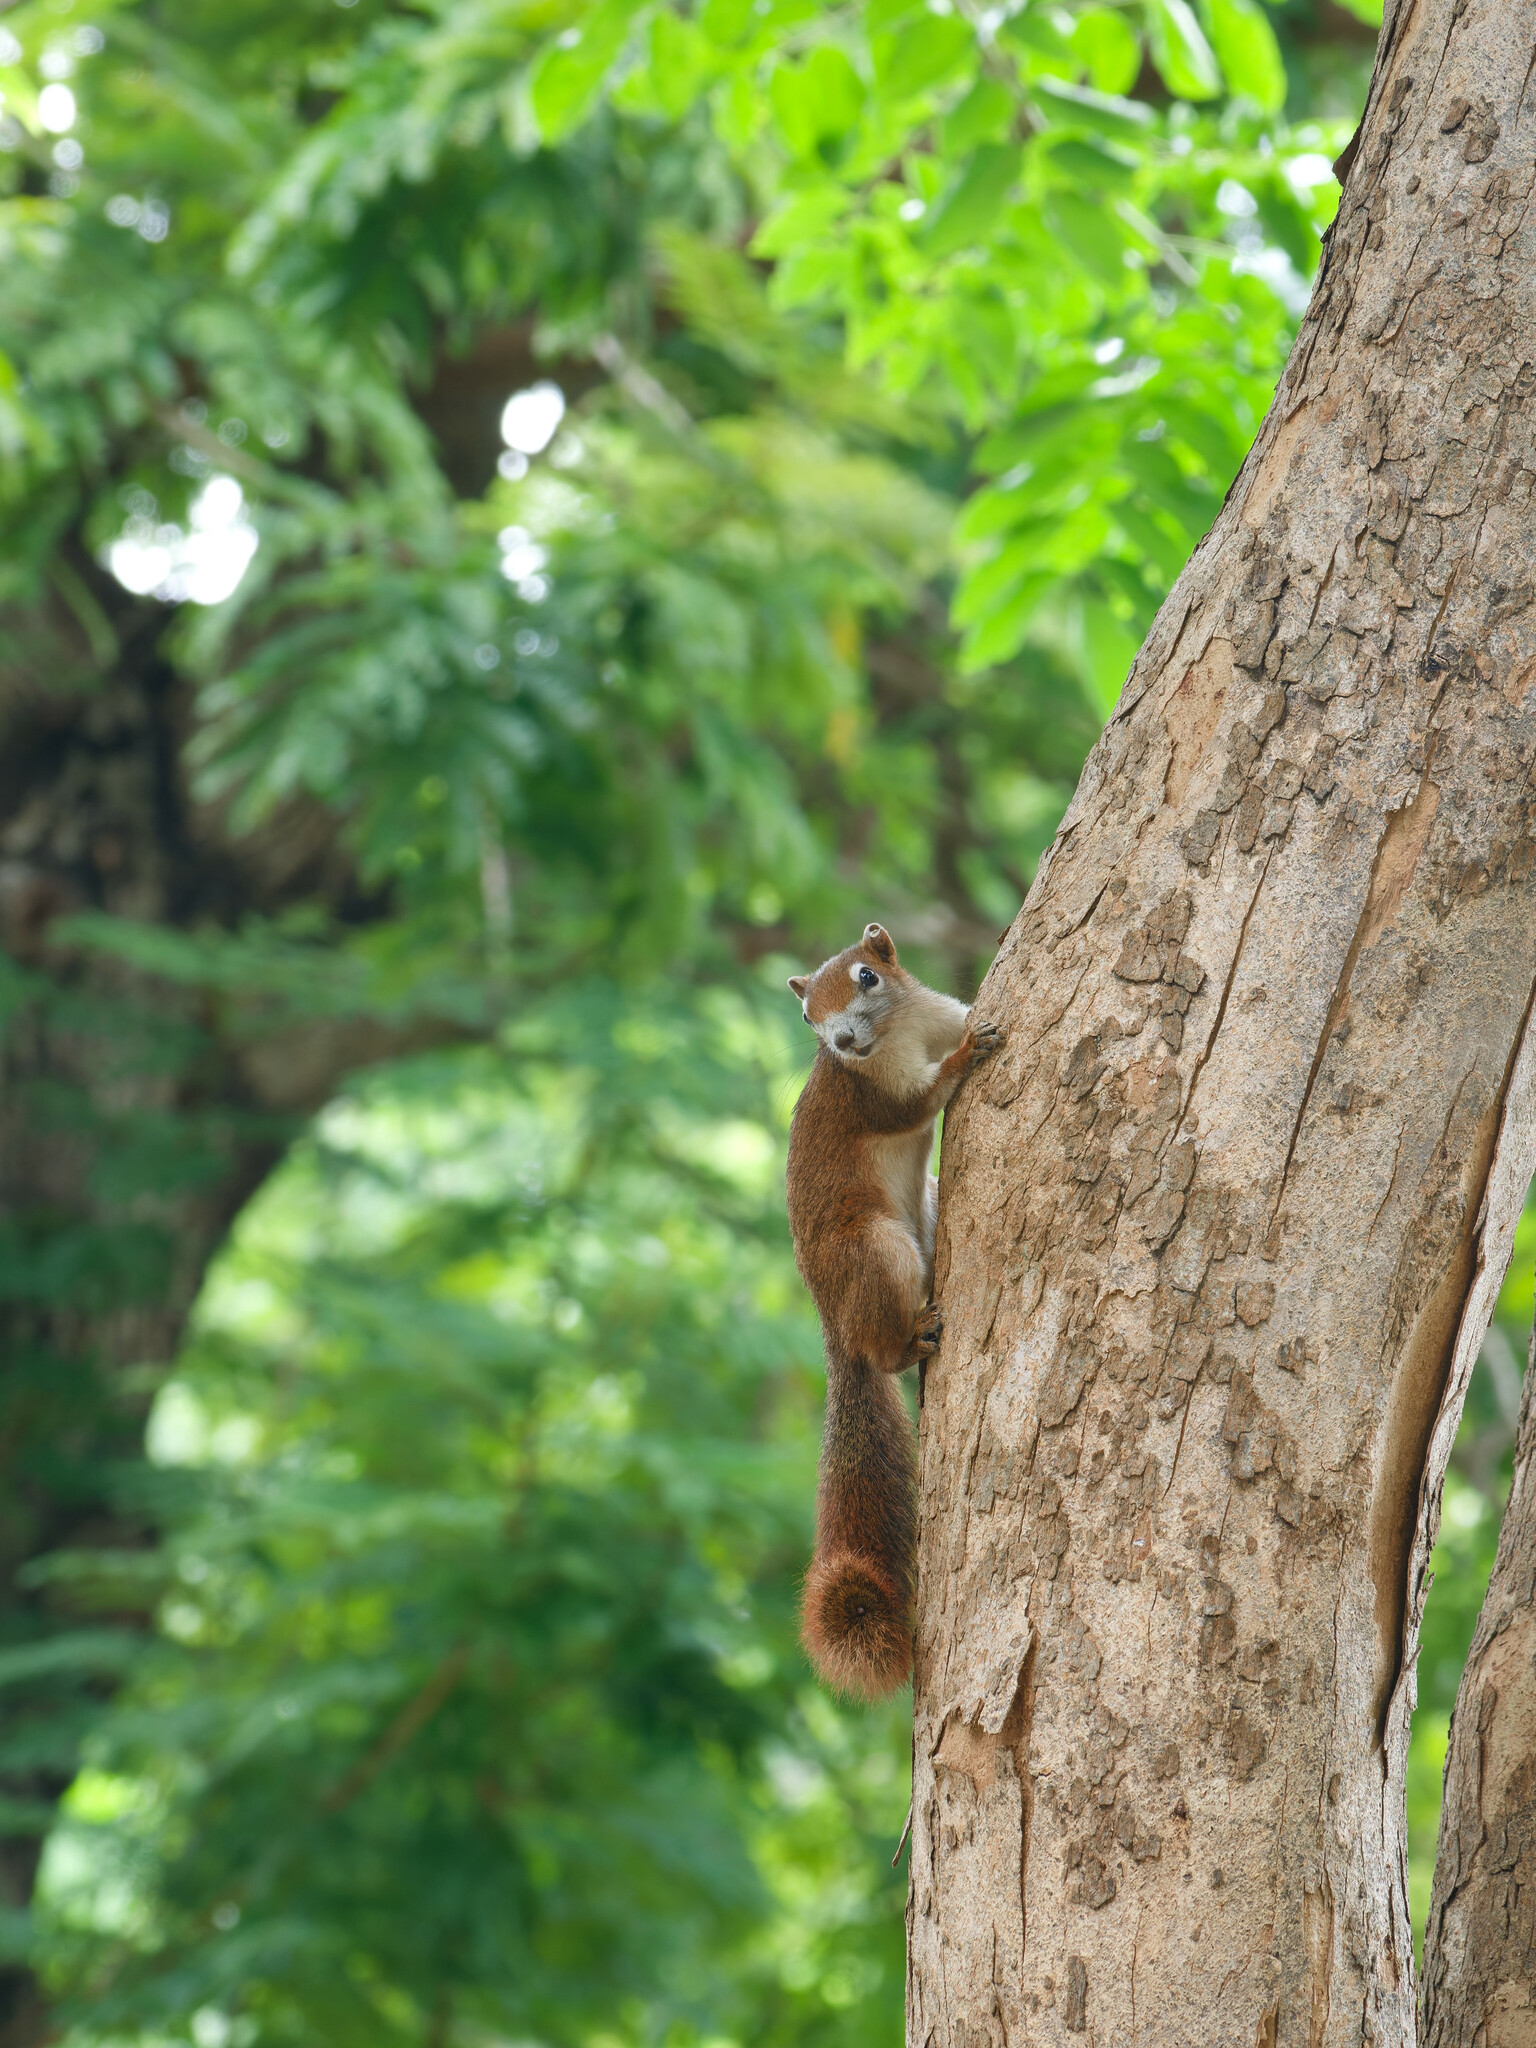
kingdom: Animalia
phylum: Chordata
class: Mammalia
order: Rodentia
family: Sciuridae
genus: Callosciurus
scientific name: Callosciurus finlaysonii
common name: Finlayson's squirrel
